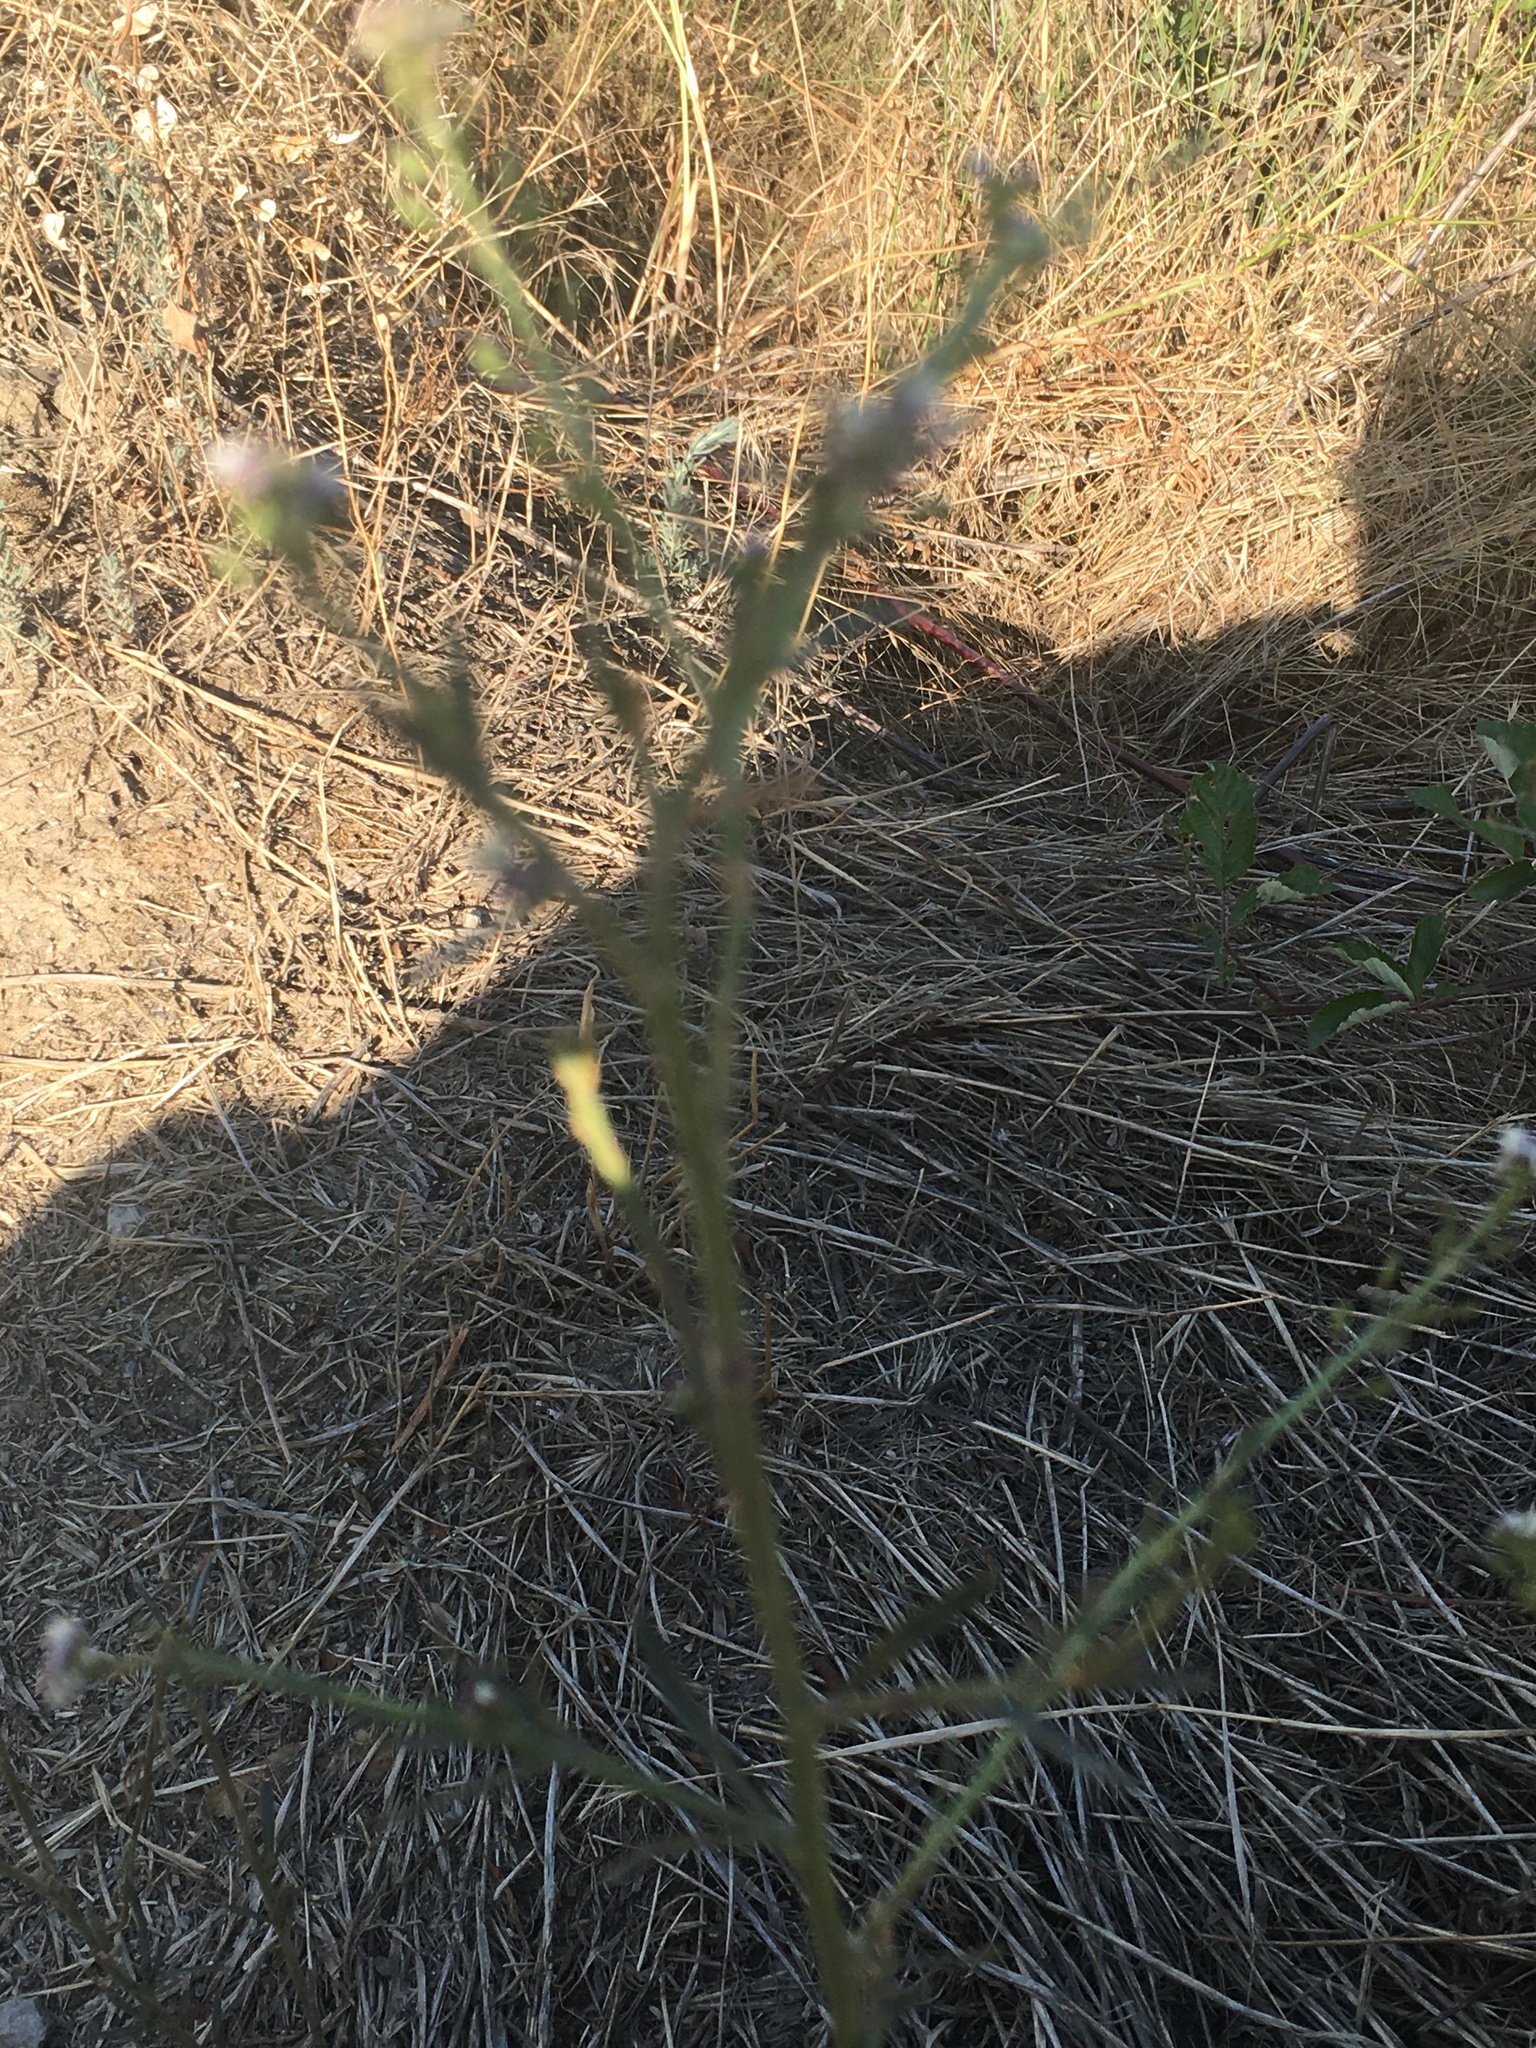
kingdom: Plantae
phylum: Tracheophyta
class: Magnoliopsida
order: Brassicales
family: Brassicaceae
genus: Lepidium
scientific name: Lepidium graminifolium
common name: Tall pepperwort
